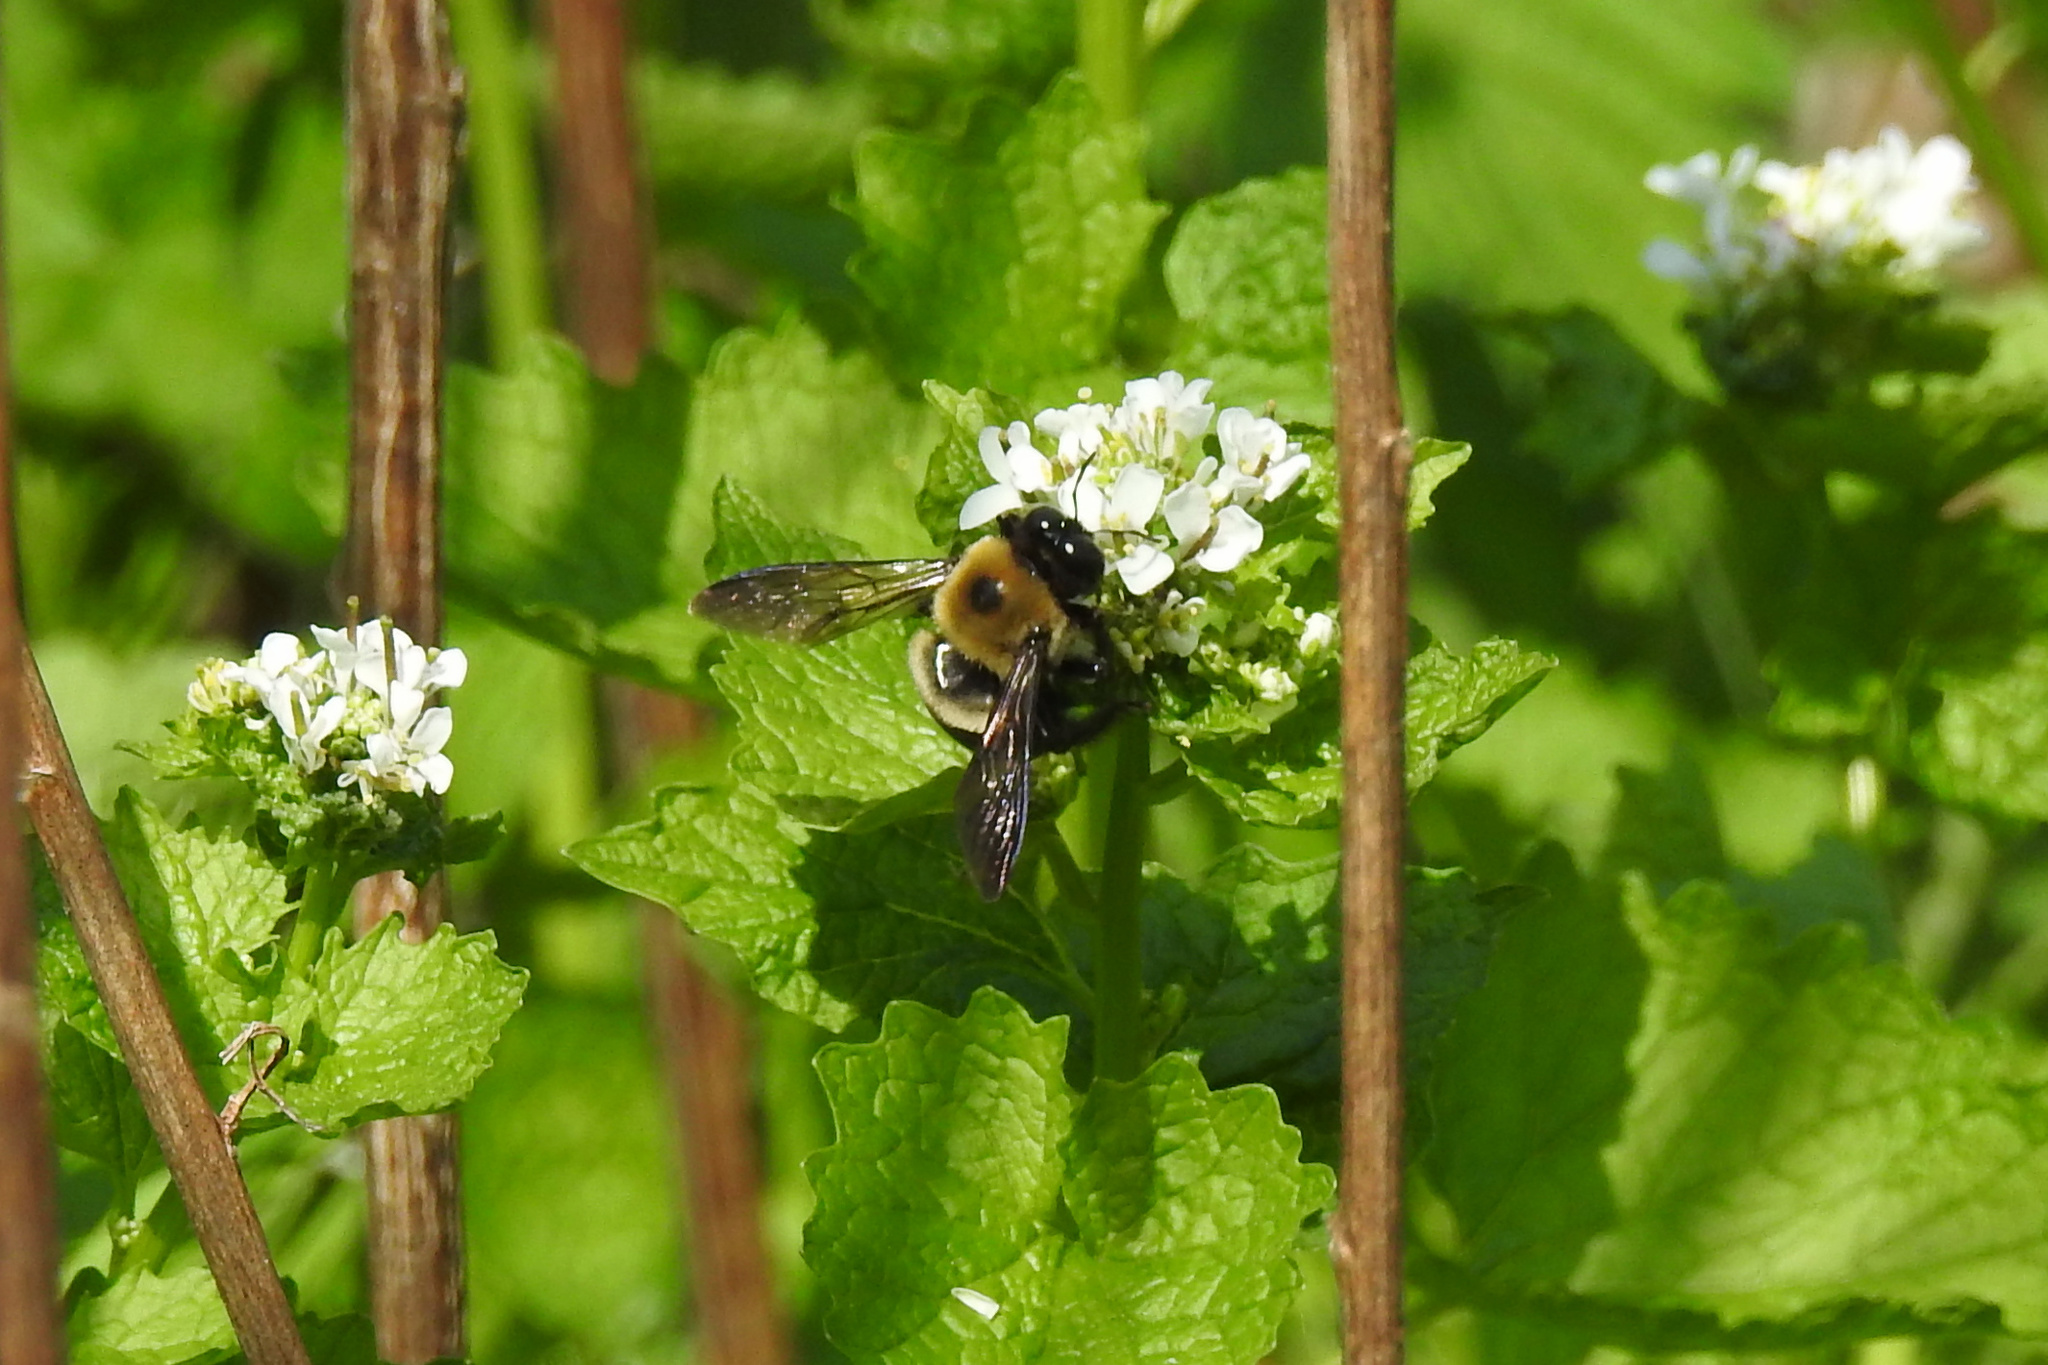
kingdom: Animalia
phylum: Arthropoda
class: Insecta
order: Hymenoptera
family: Apidae
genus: Xylocopa
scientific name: Xylocopa virginica
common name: Carpenter bee
